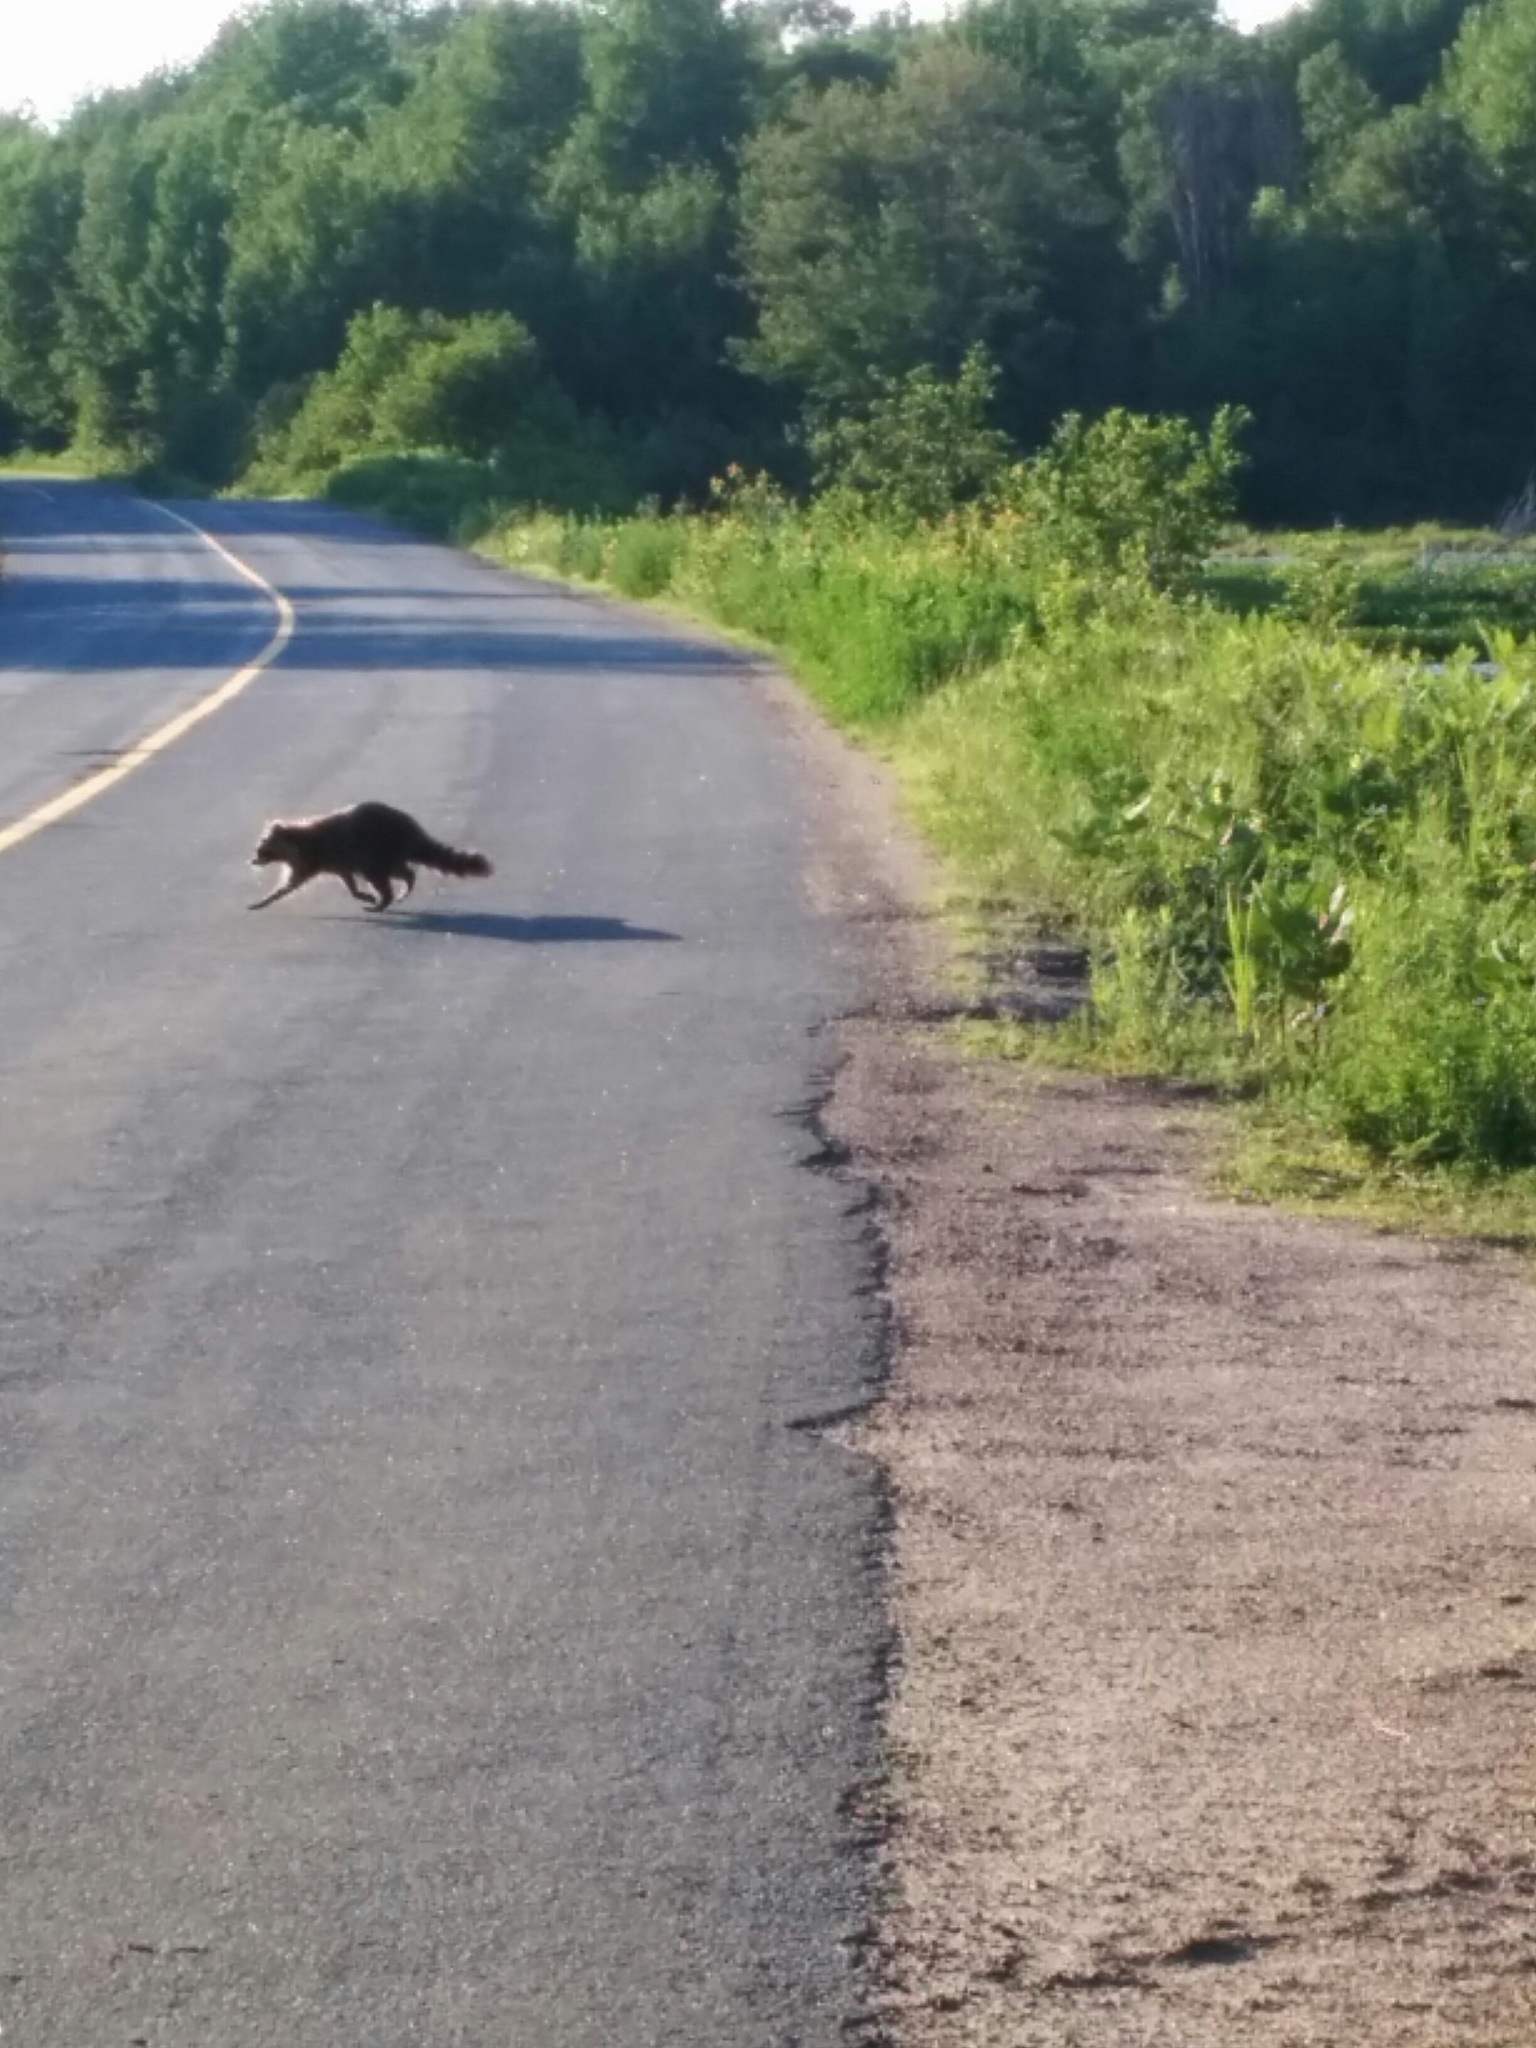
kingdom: Animalia
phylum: Chordata
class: Mammalia
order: Carnivora
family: Procyonidae
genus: Procyon
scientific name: Procyon lotor
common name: Raccoon
